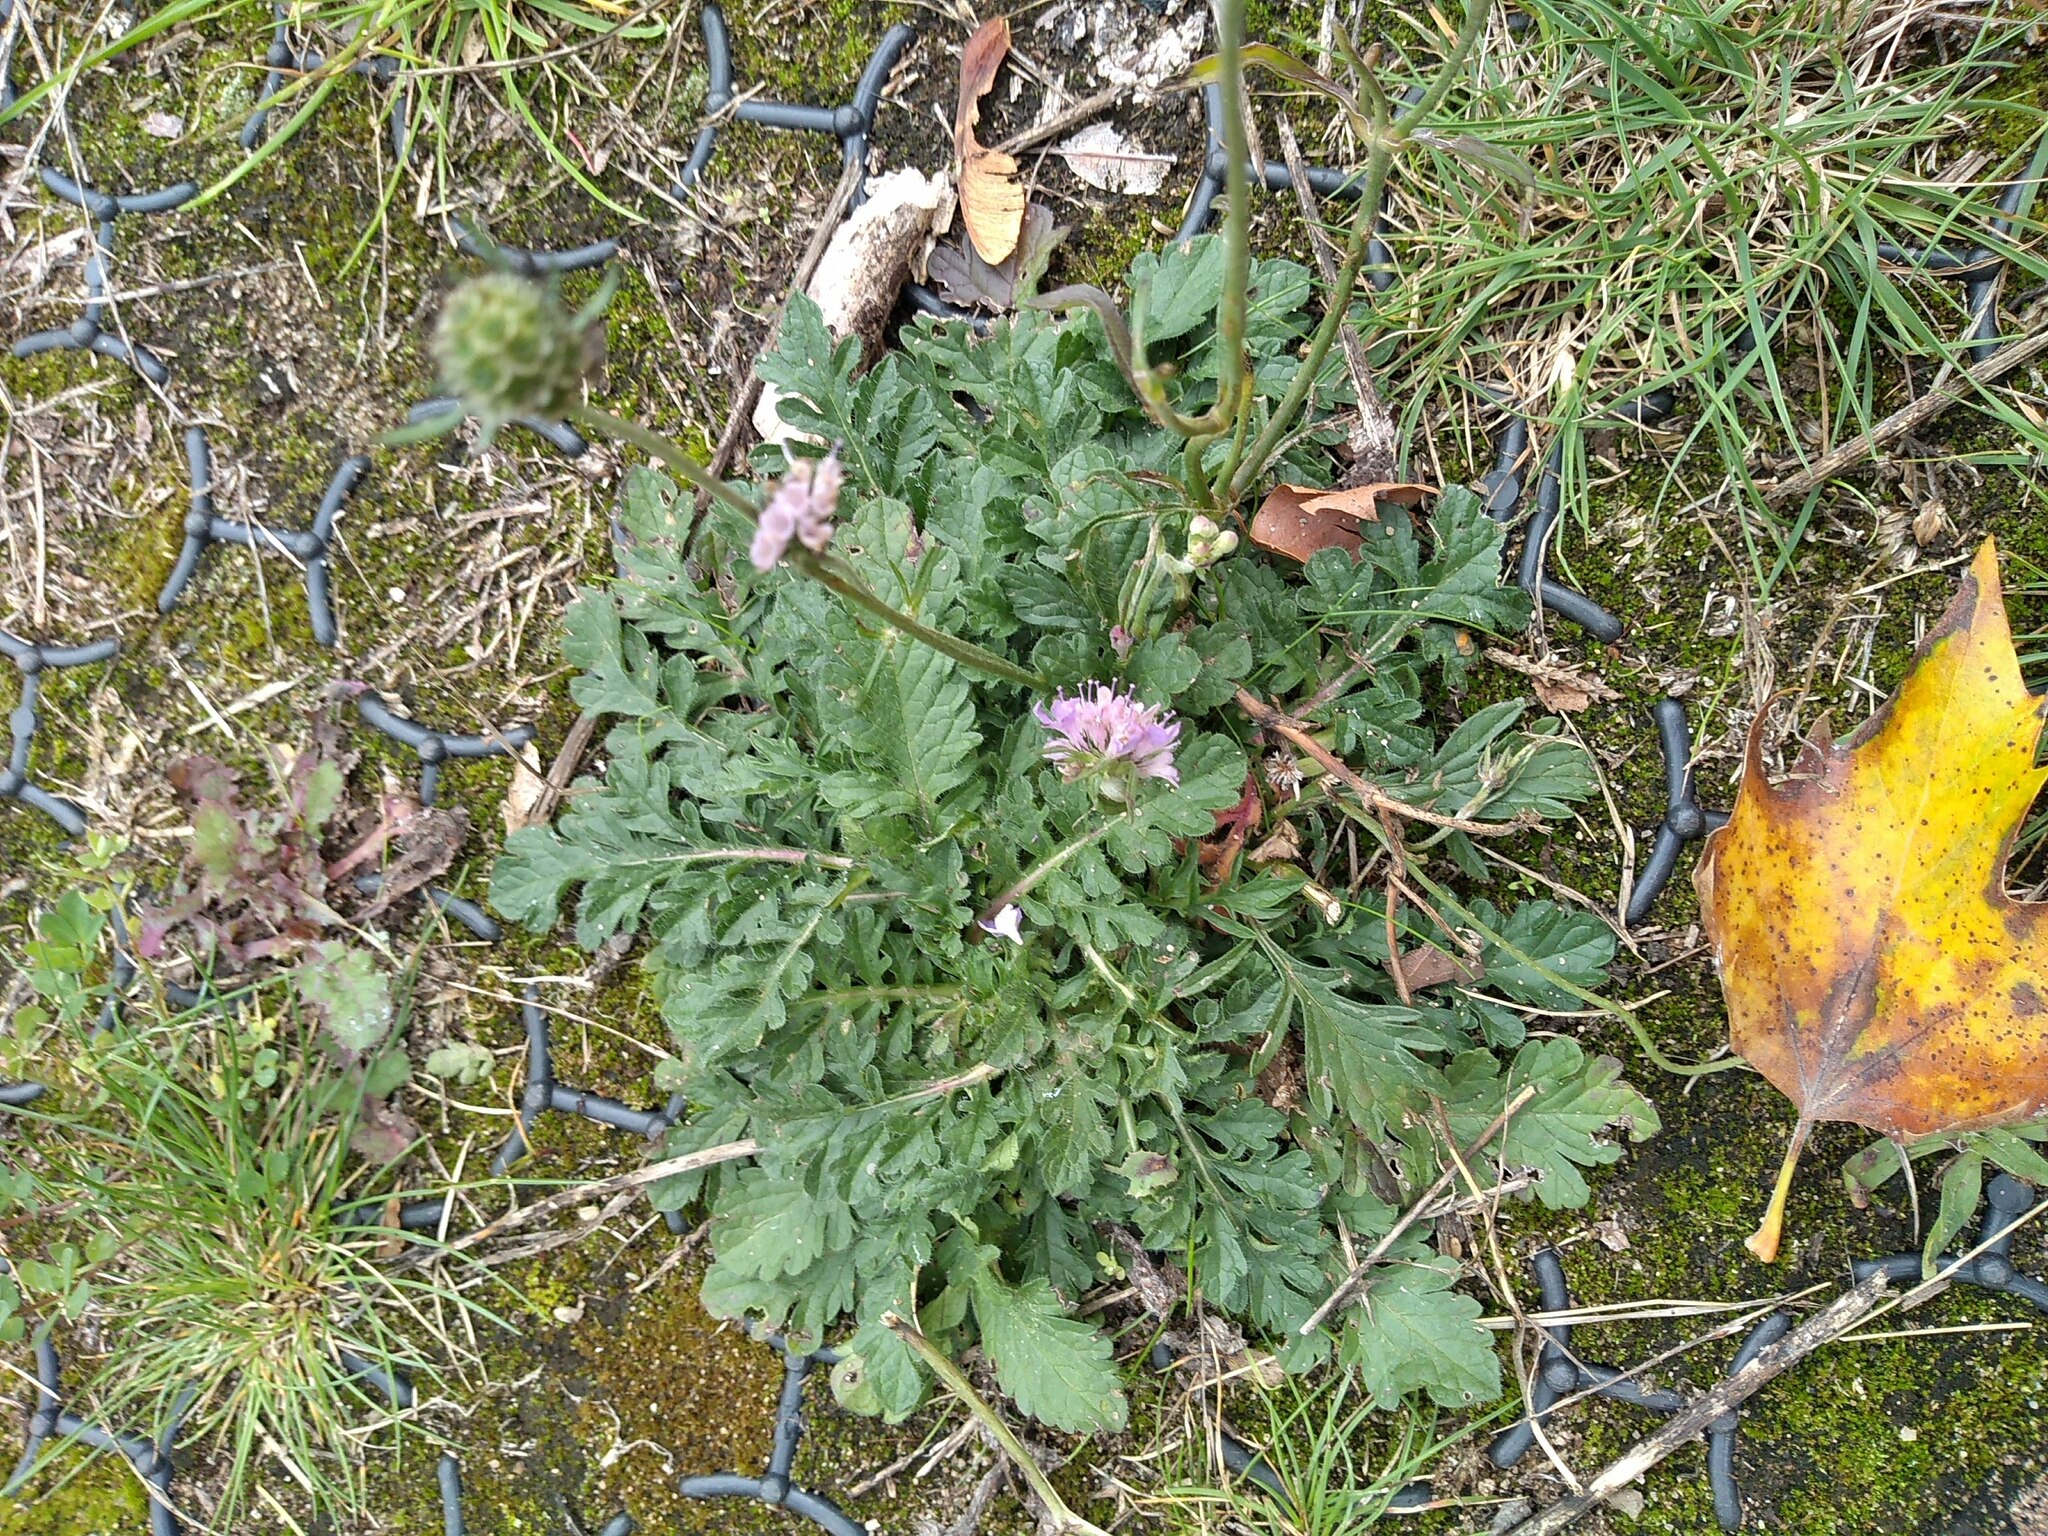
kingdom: Plantae
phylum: Tracheophyta
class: Magnoliopsida
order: Dipsacales
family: Caprifoliaceae
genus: Scabiosa
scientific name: Scabiosa columbaria
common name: Small scabious
